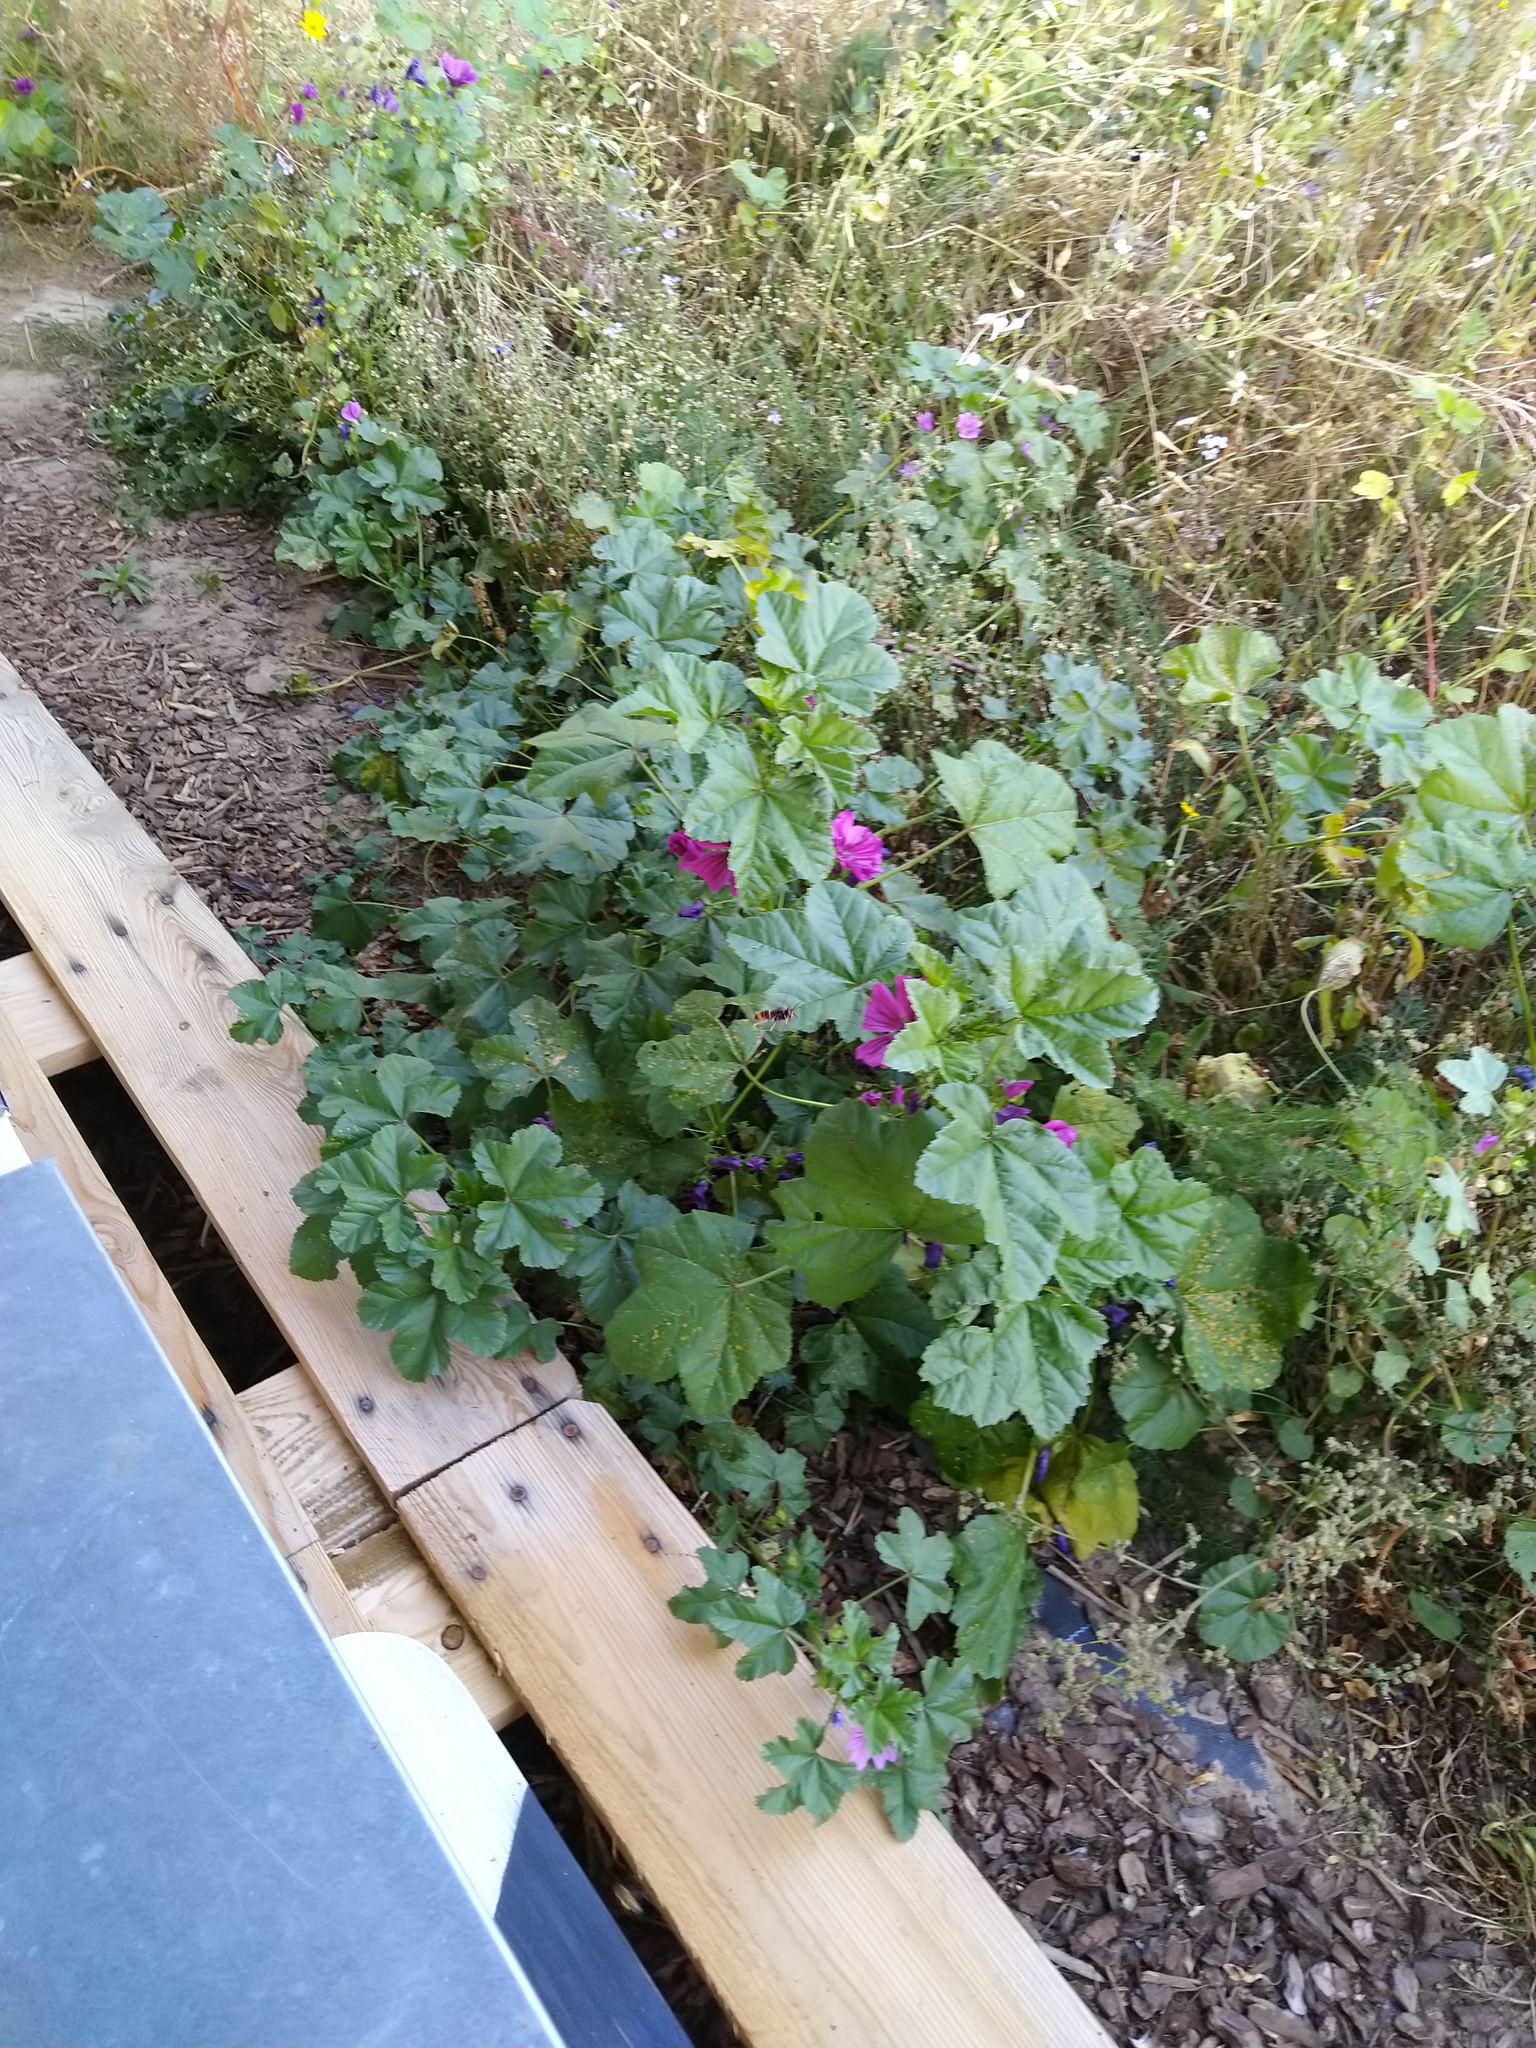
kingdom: Animalia
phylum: Arthropoda
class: Insecta
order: Hymenoptera
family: Vespidae
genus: Vespa
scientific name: Vespa velutina
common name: Asian hornet
